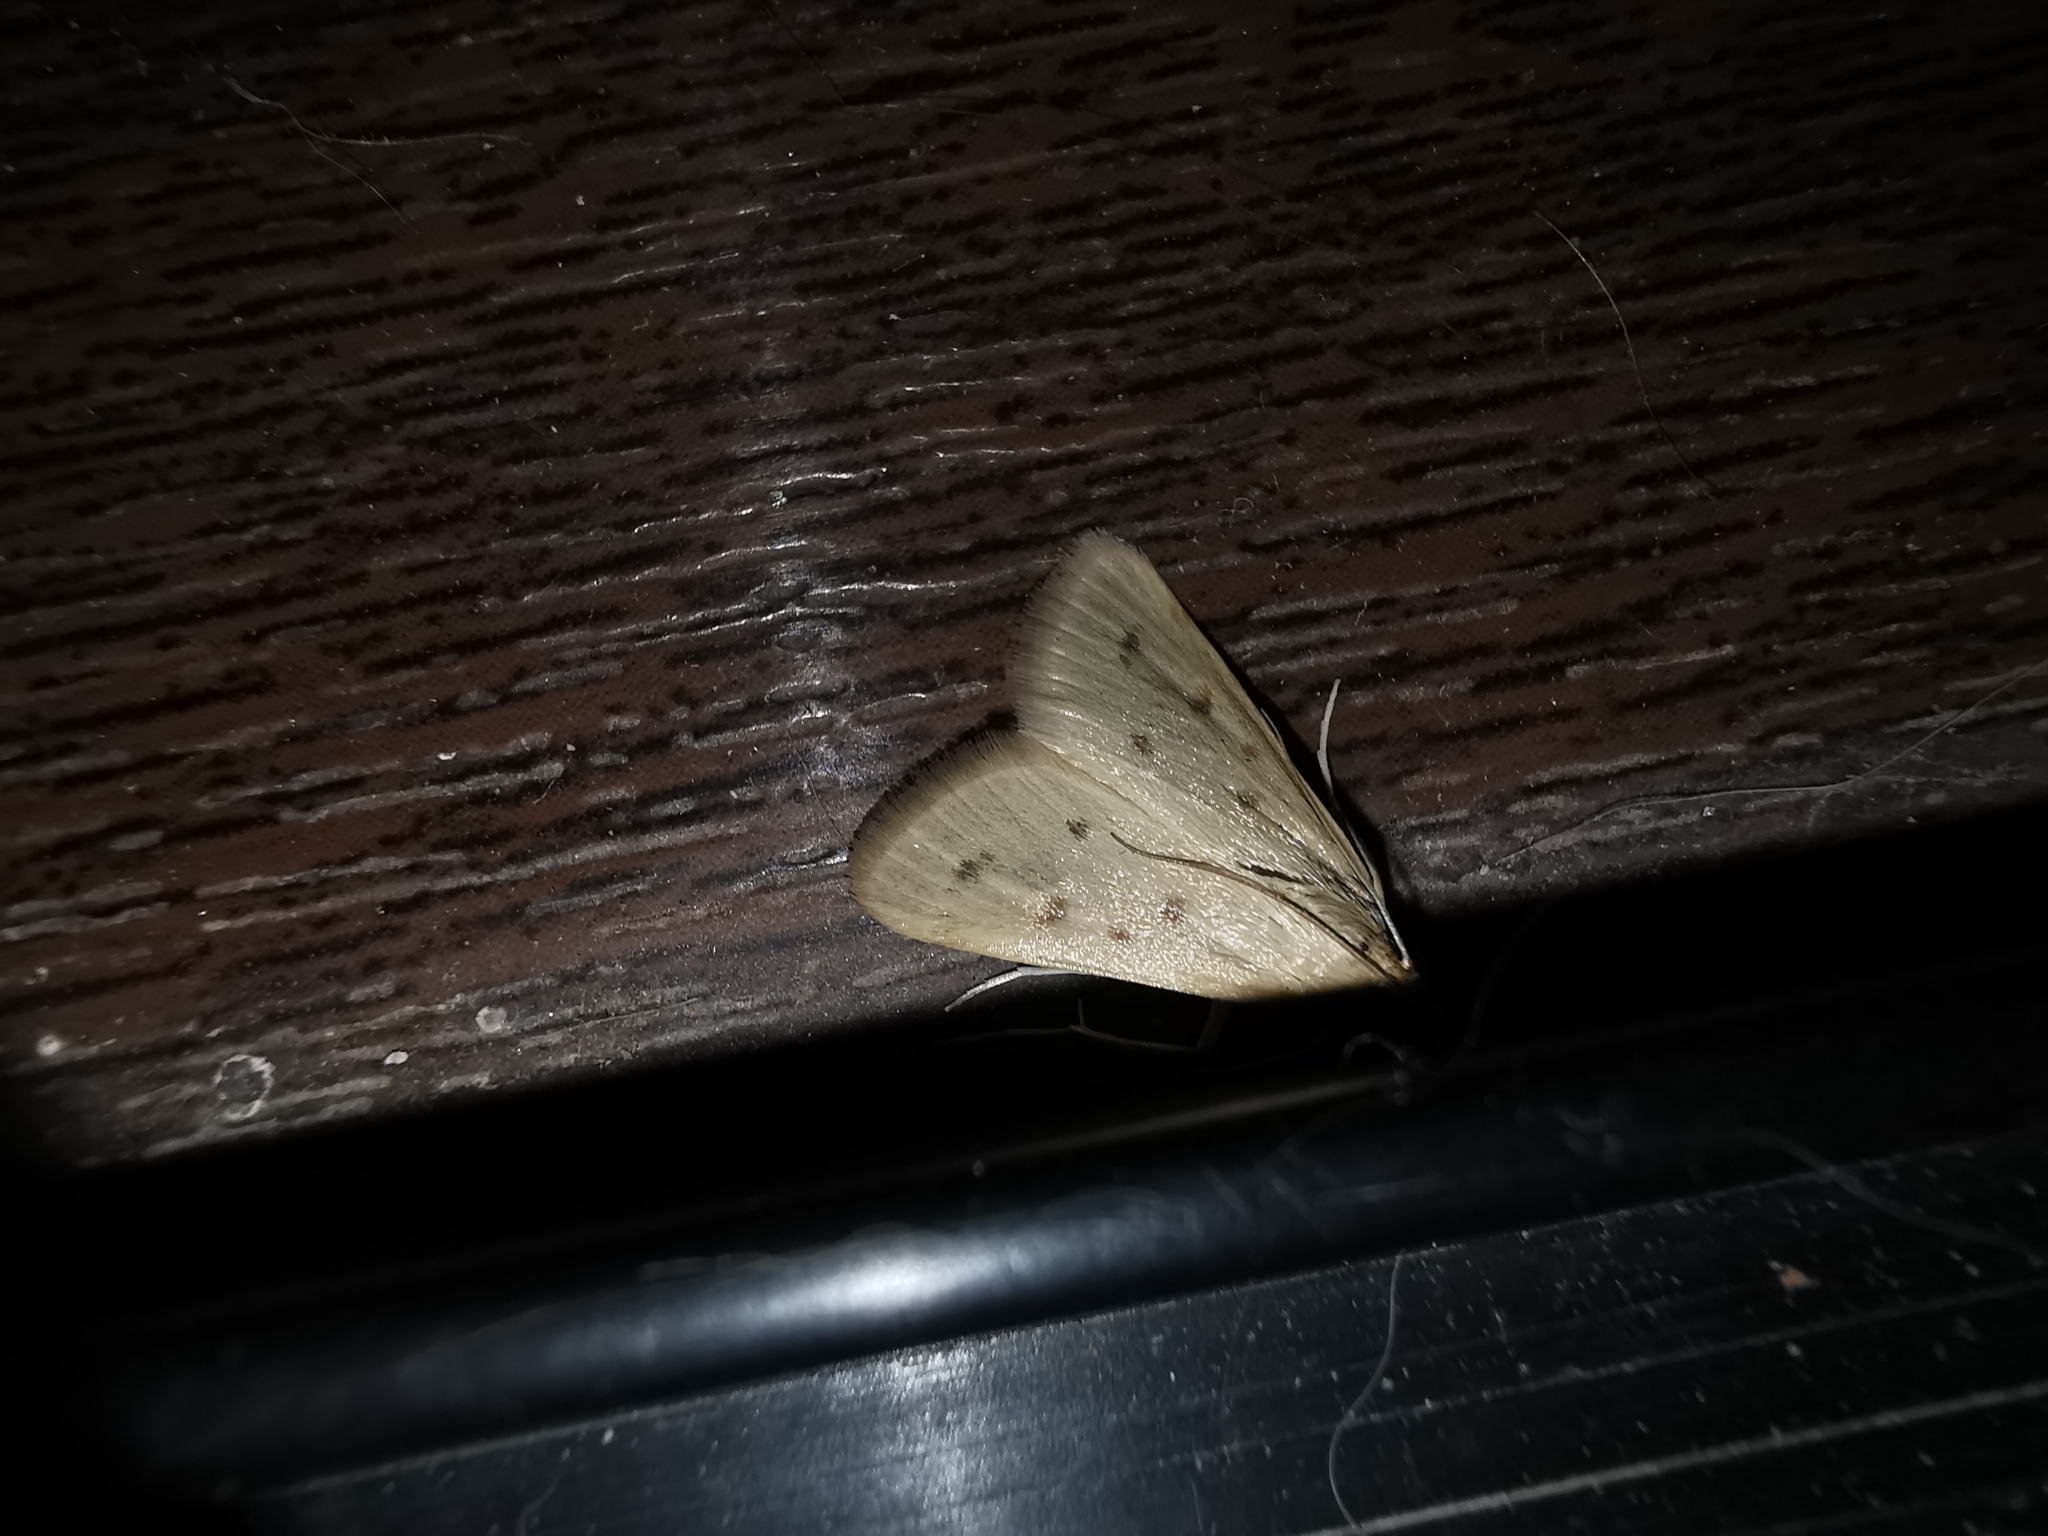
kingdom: Animalia
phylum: Arthropoda
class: Insecta
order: Lepidoptera
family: Crambidae
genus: Achyra
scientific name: Achyra nudalis
